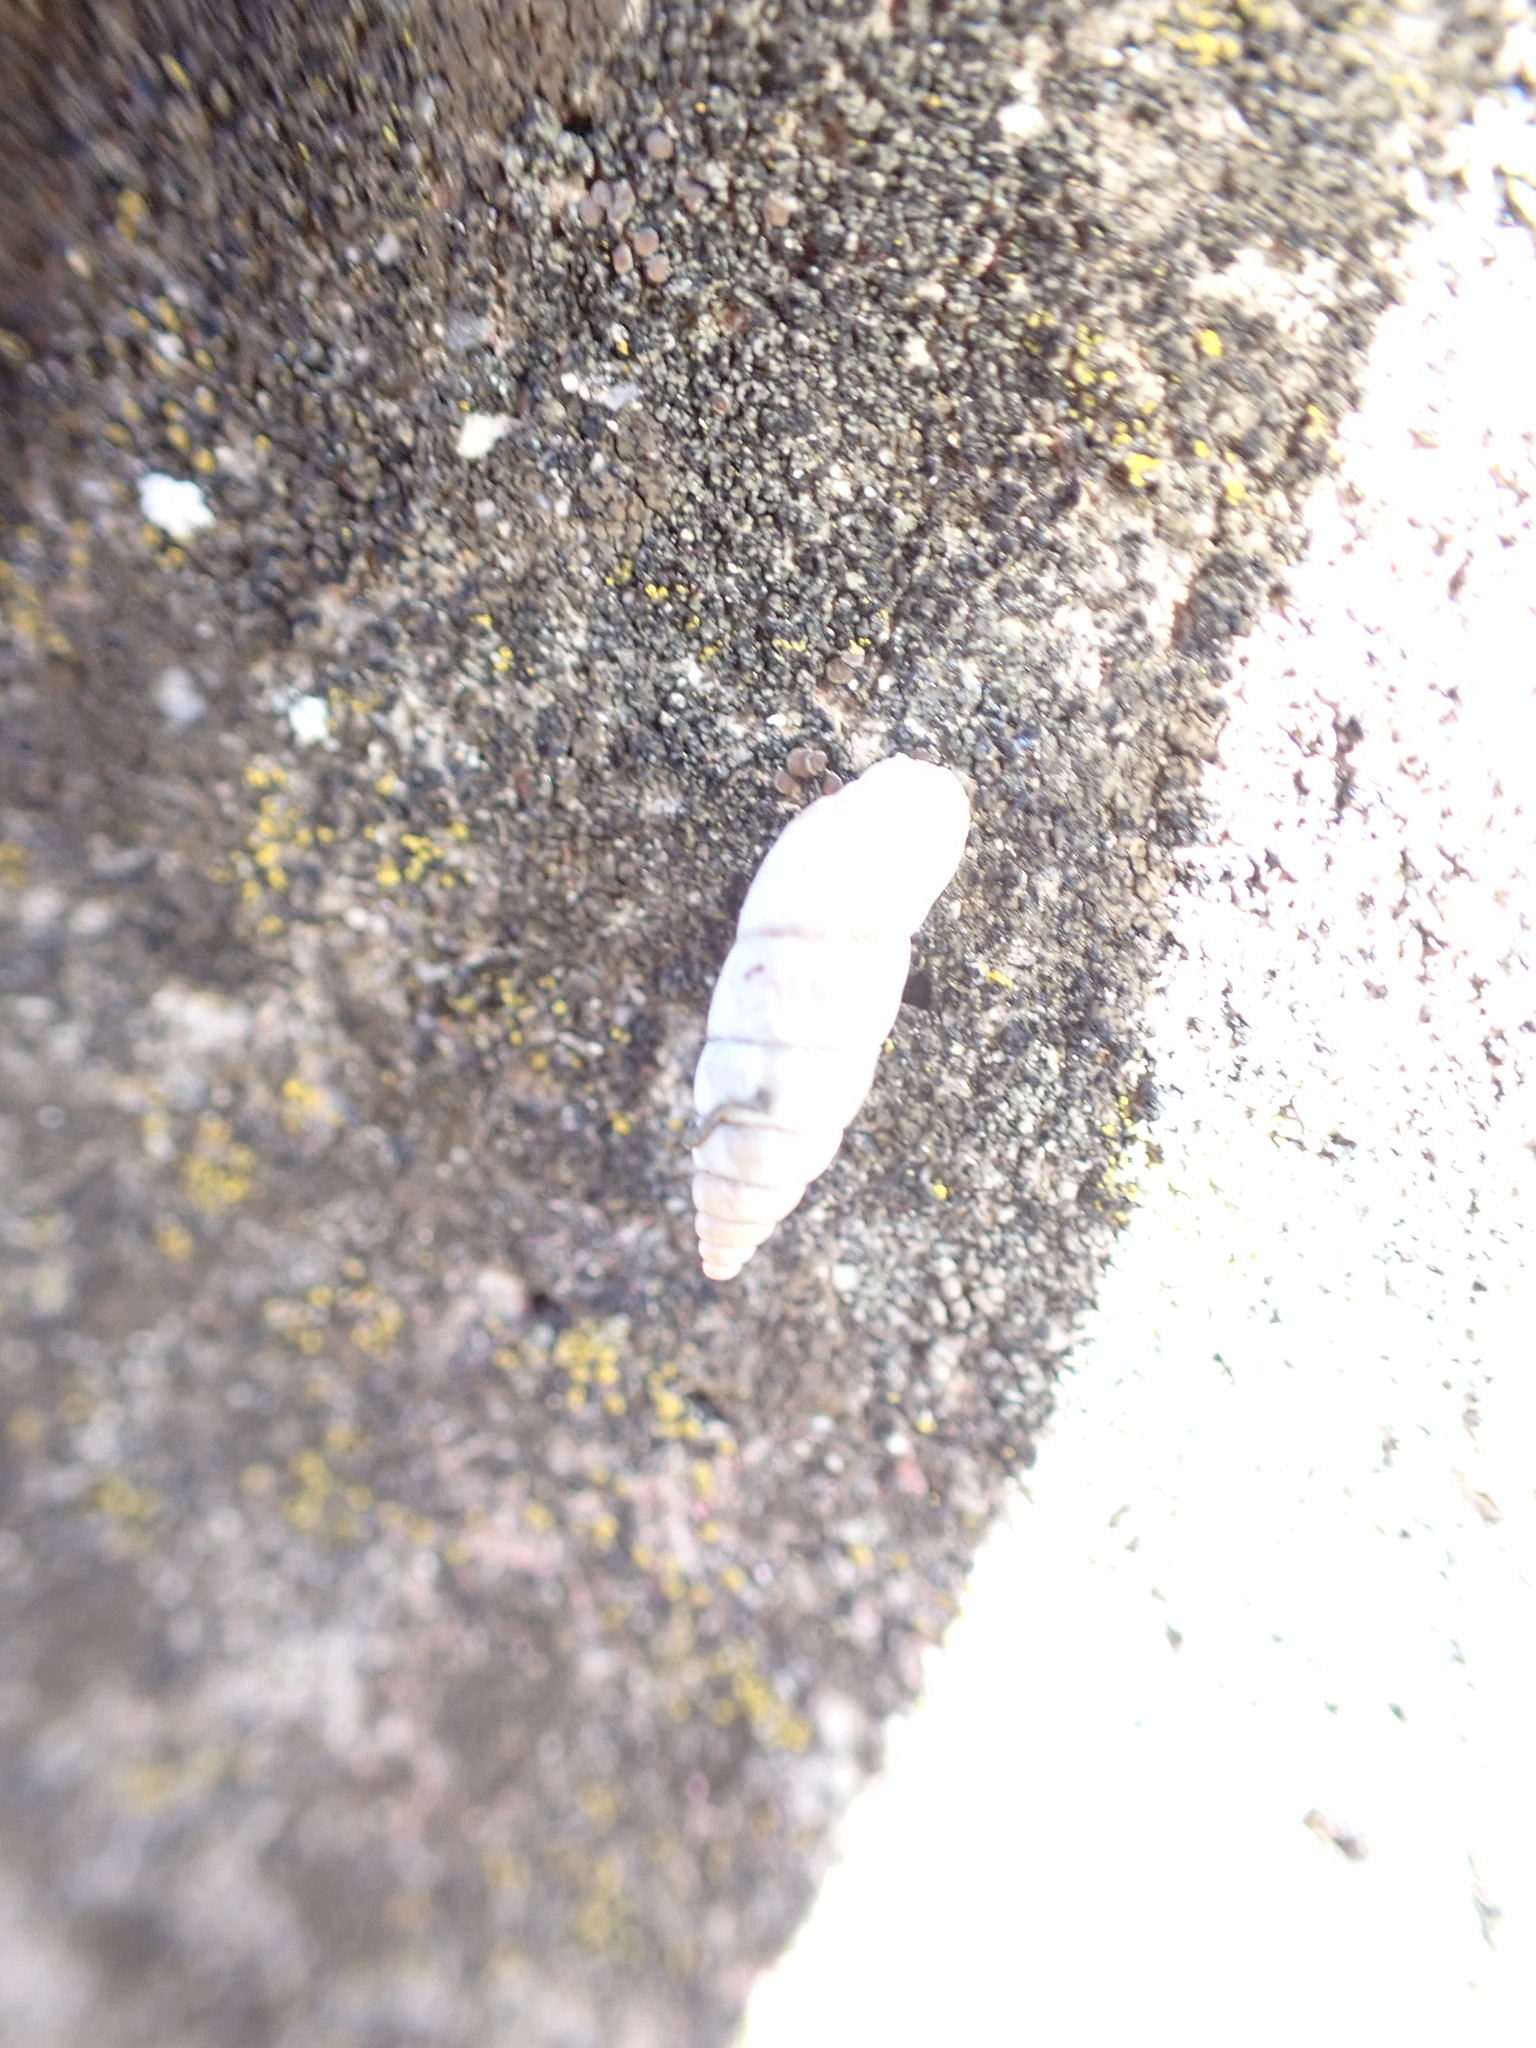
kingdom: Animalia
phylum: Mollusca
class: Gastropoda
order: Stylommatophora
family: Chondrinidae
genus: Solatopupa
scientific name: Solatopupa similis
